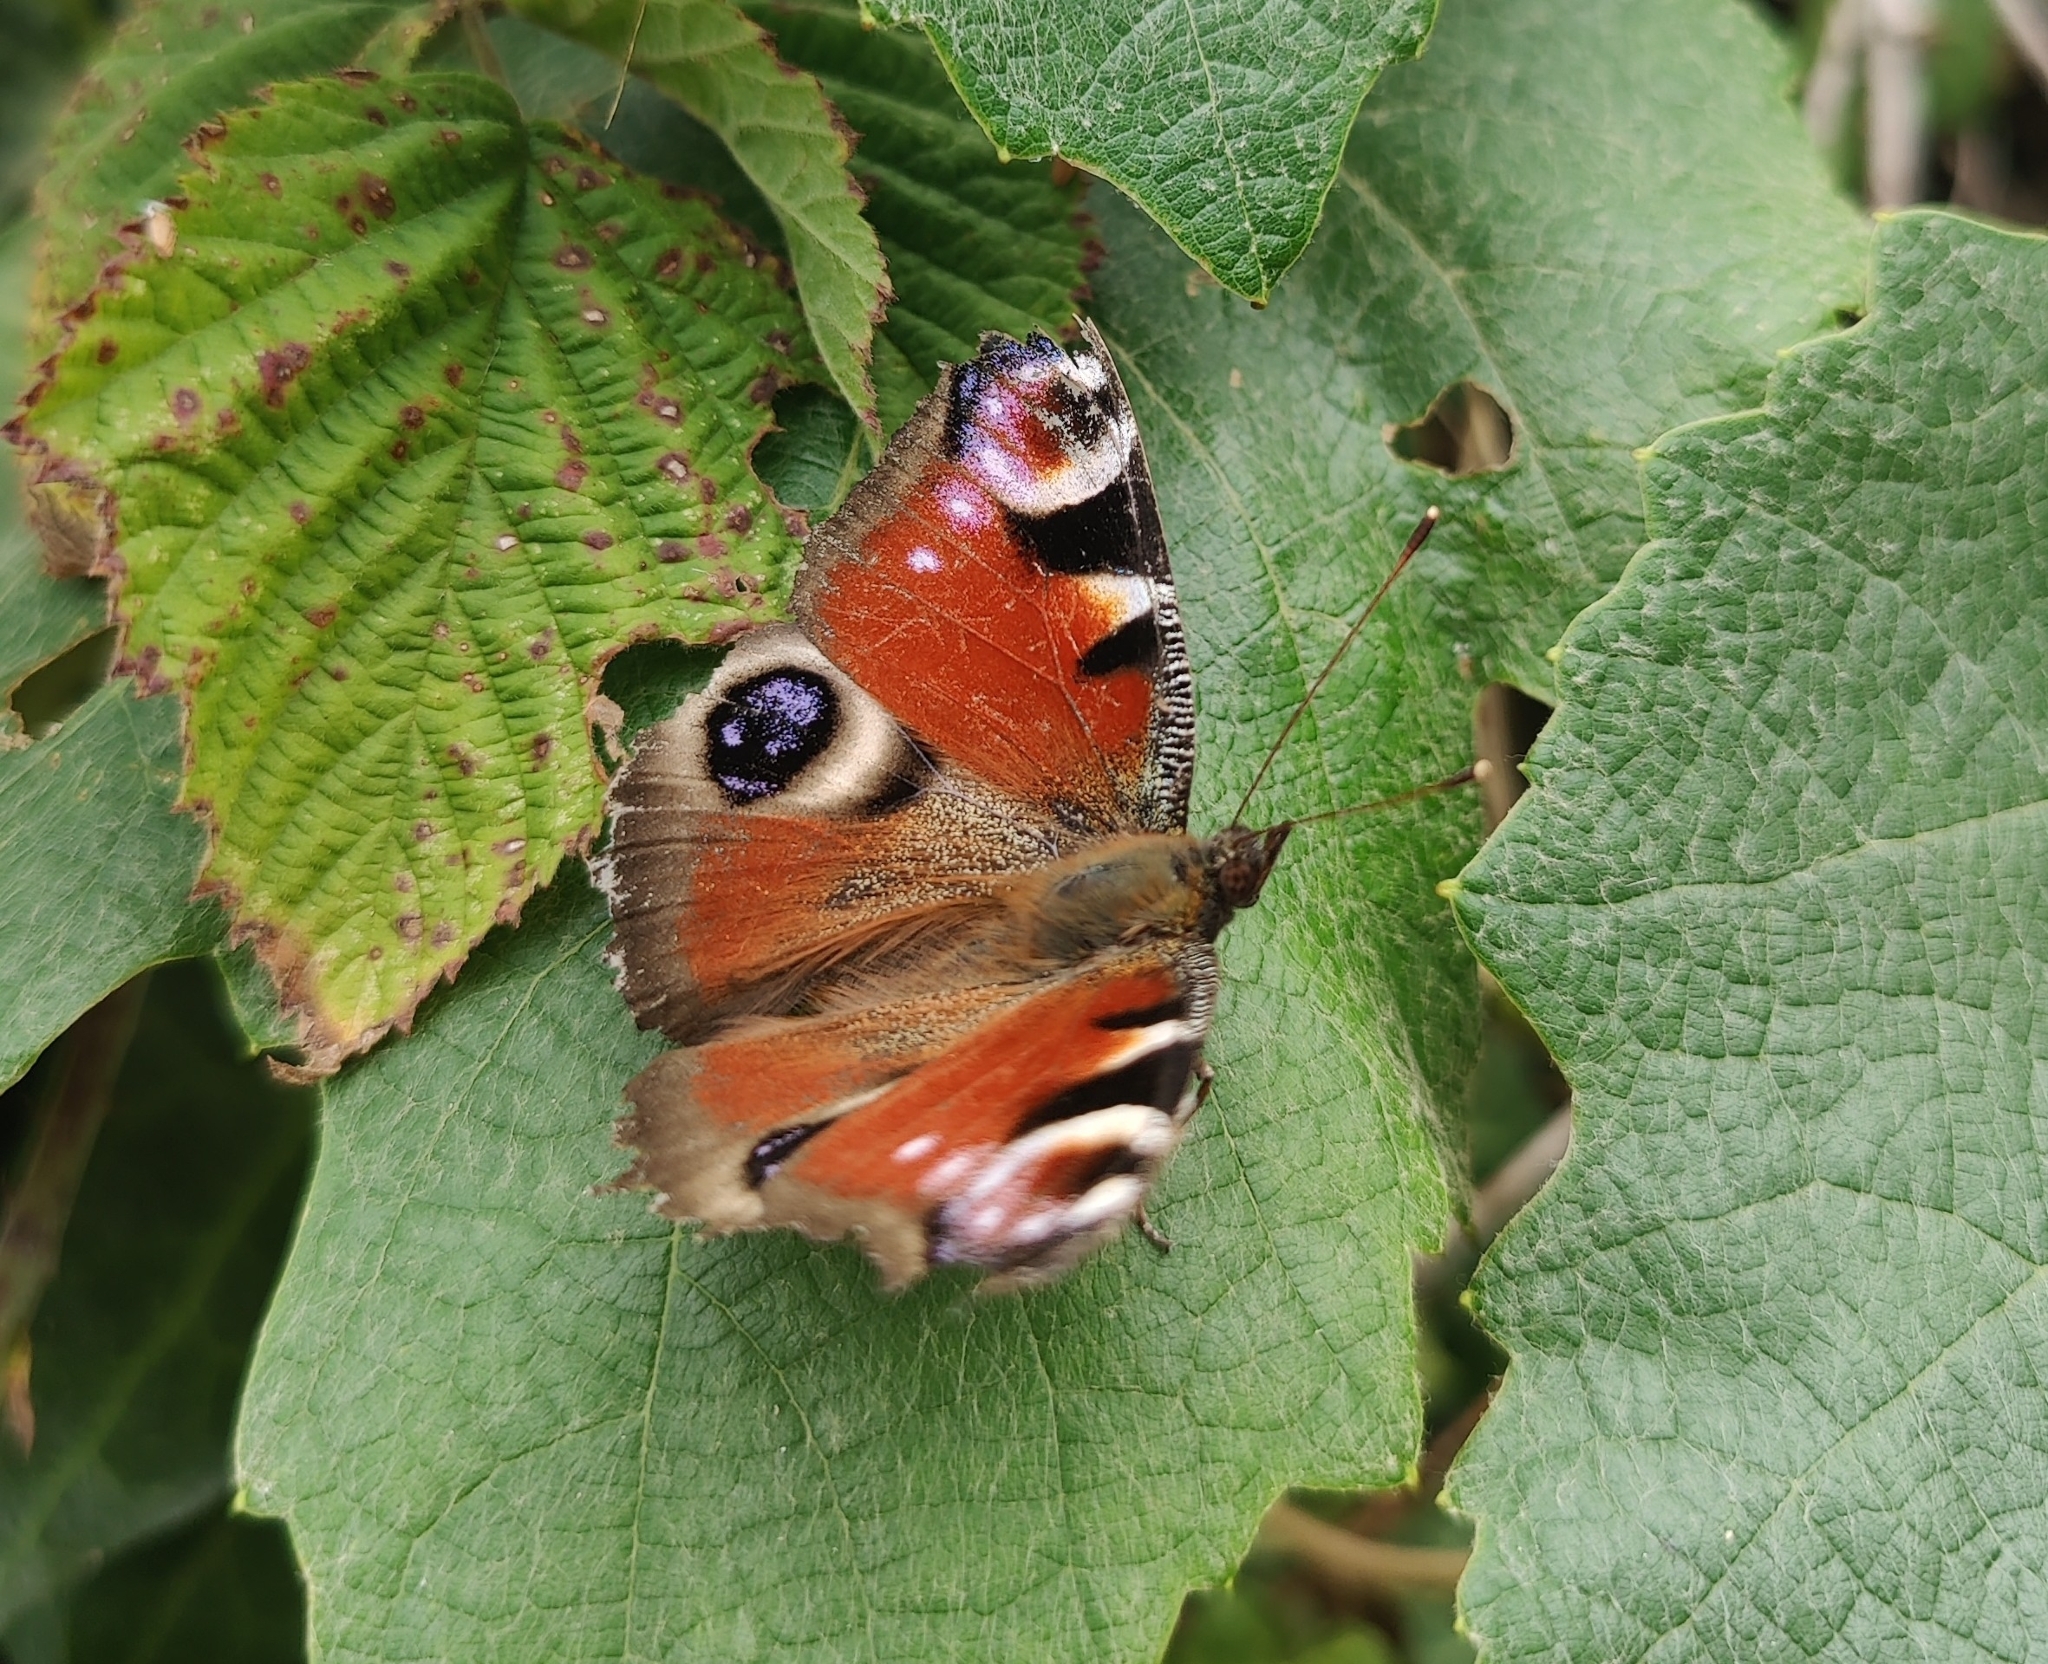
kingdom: Animalia
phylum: Arthropoda
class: Insecta
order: Lepidoptera
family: Nymphalidae
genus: Aglais
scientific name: Aglais io
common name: Peacock
